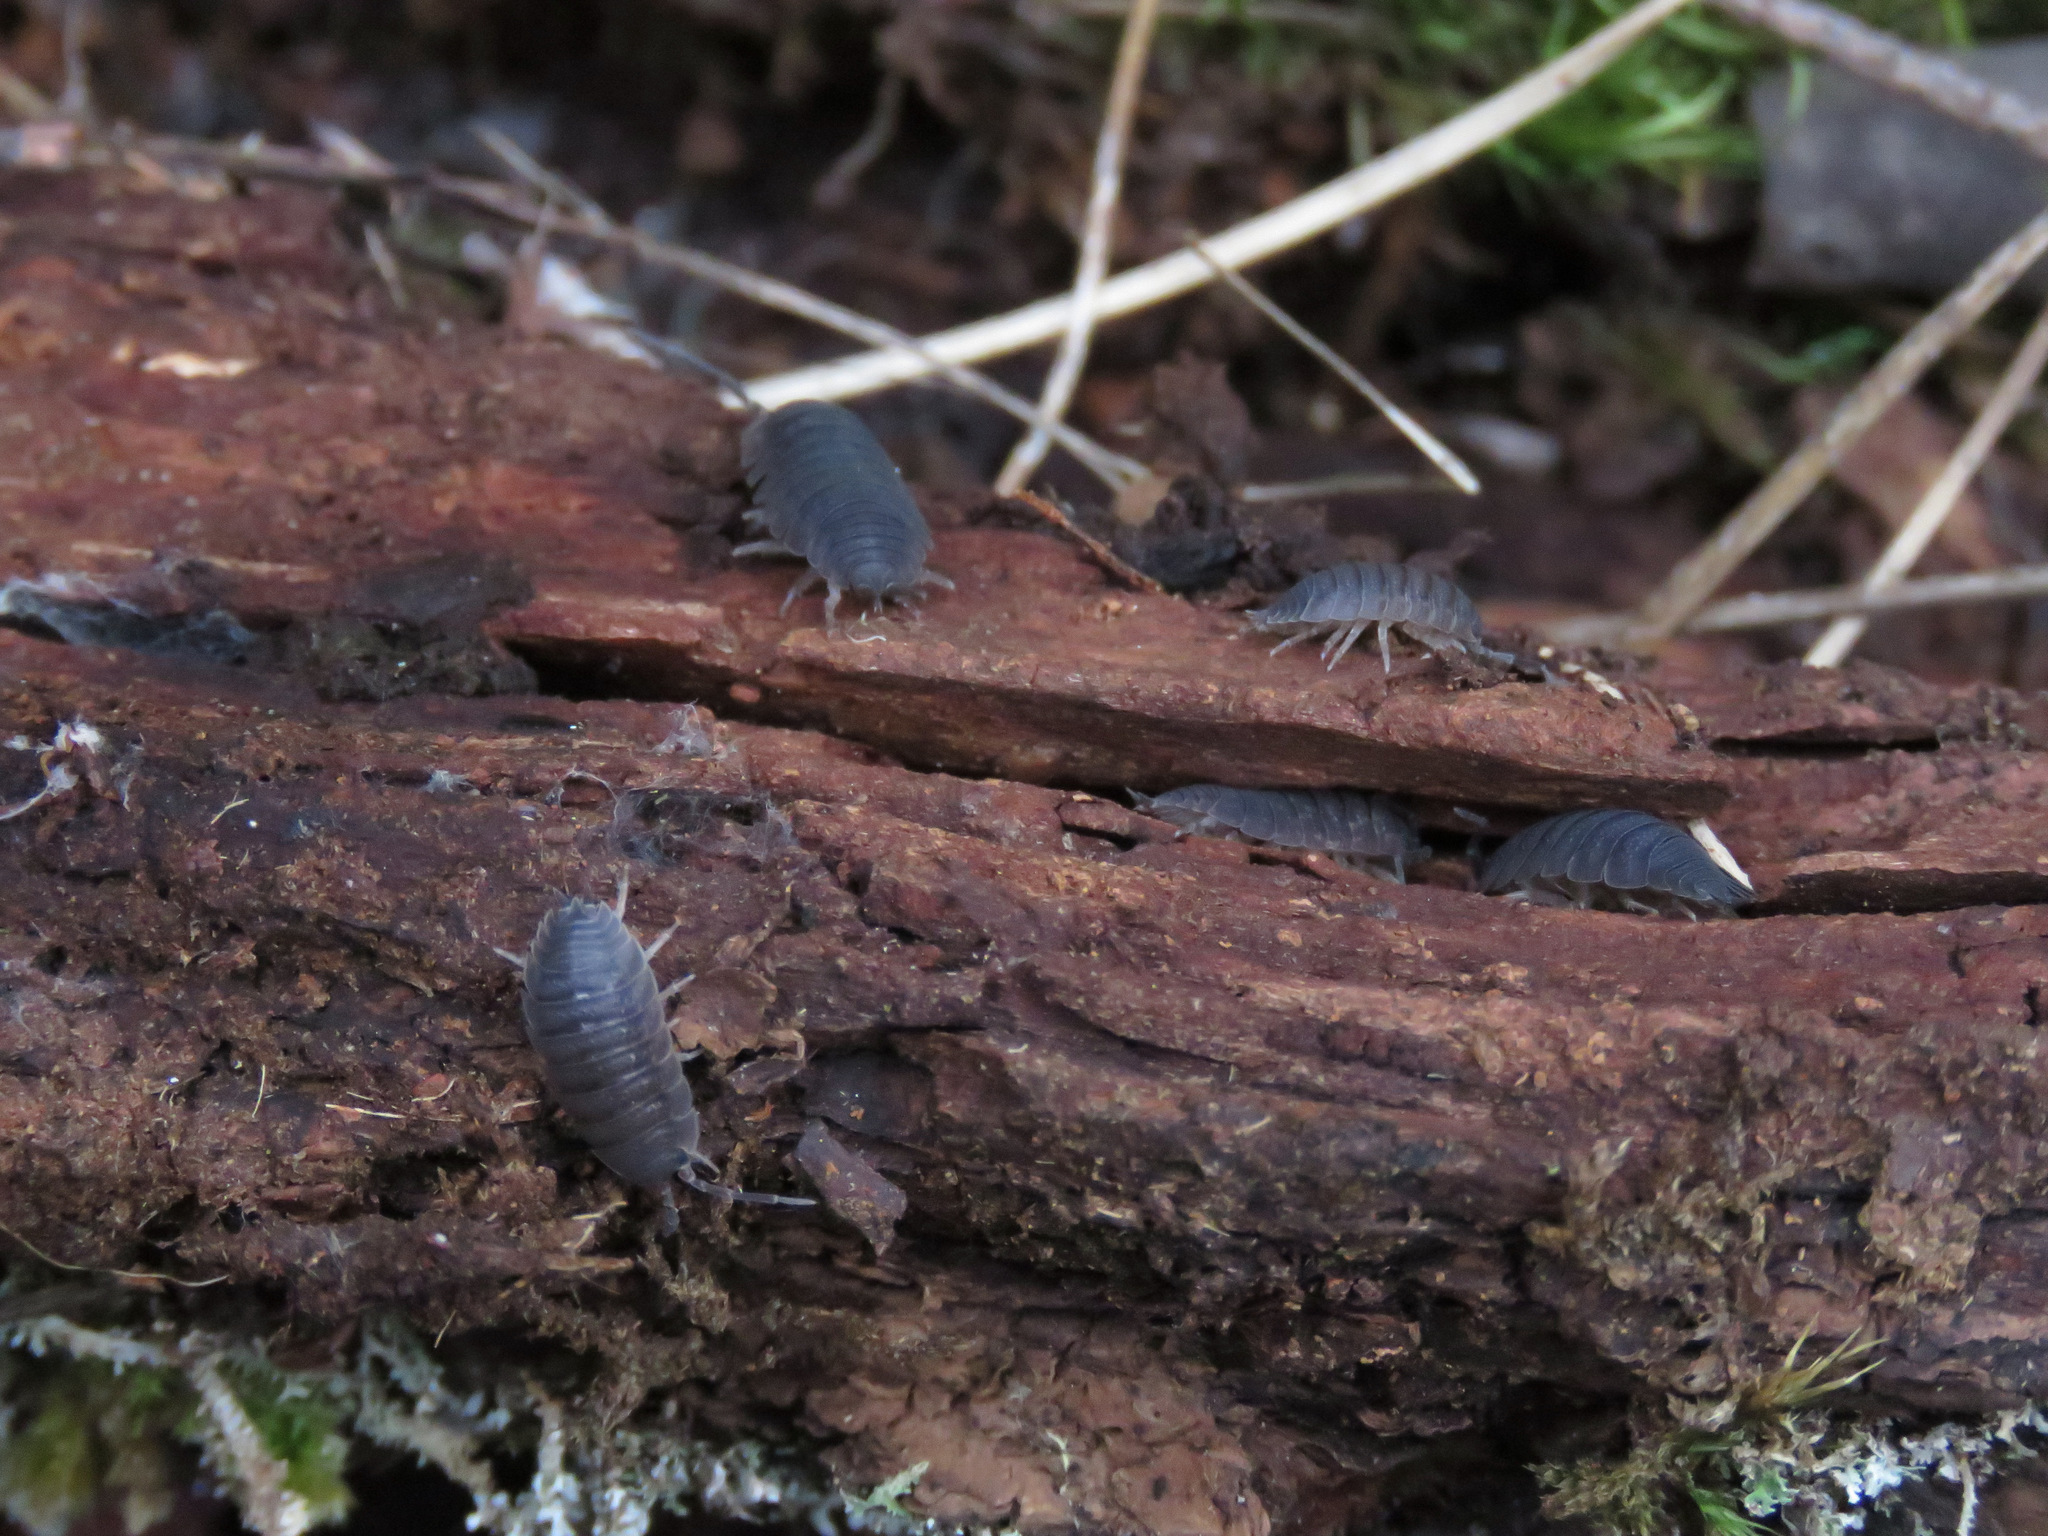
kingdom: Animalia
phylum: Arthropoda
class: Malacostraca
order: Isopoda
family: Porcellionidae
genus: Porcellio
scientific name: Porcellio scaber
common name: Common rough woodlouse
